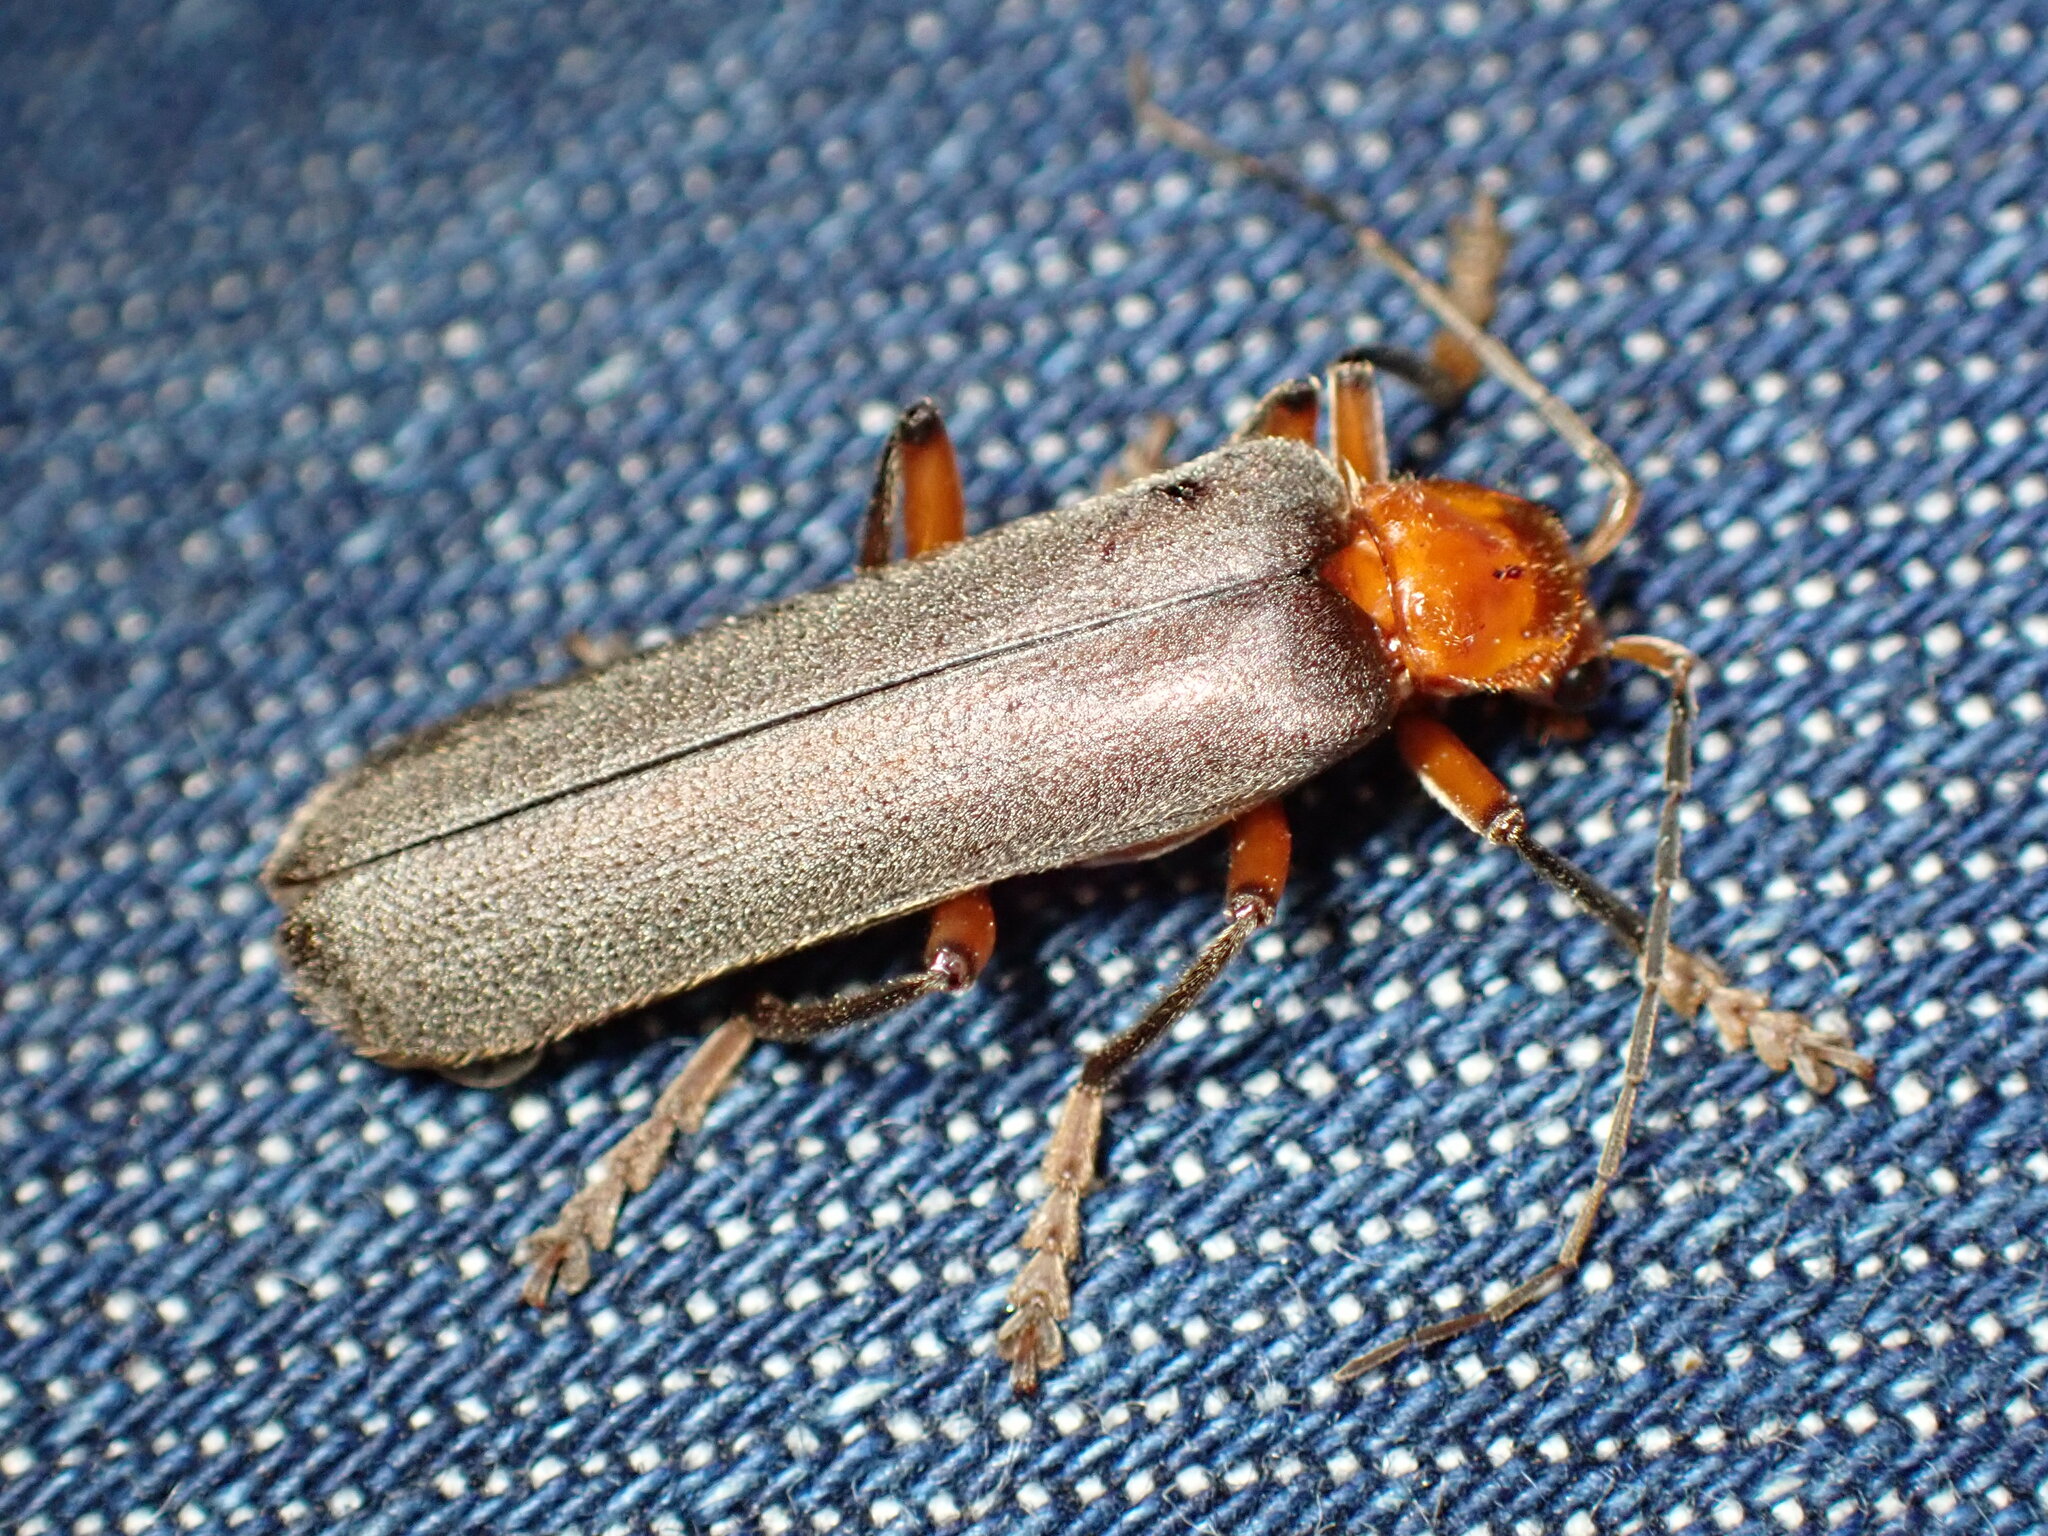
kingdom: Animalia
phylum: Arthropoda
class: Insecta
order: Coleoptera
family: Cantharidae
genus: Pacificanthia
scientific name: Pacificanthia consors
